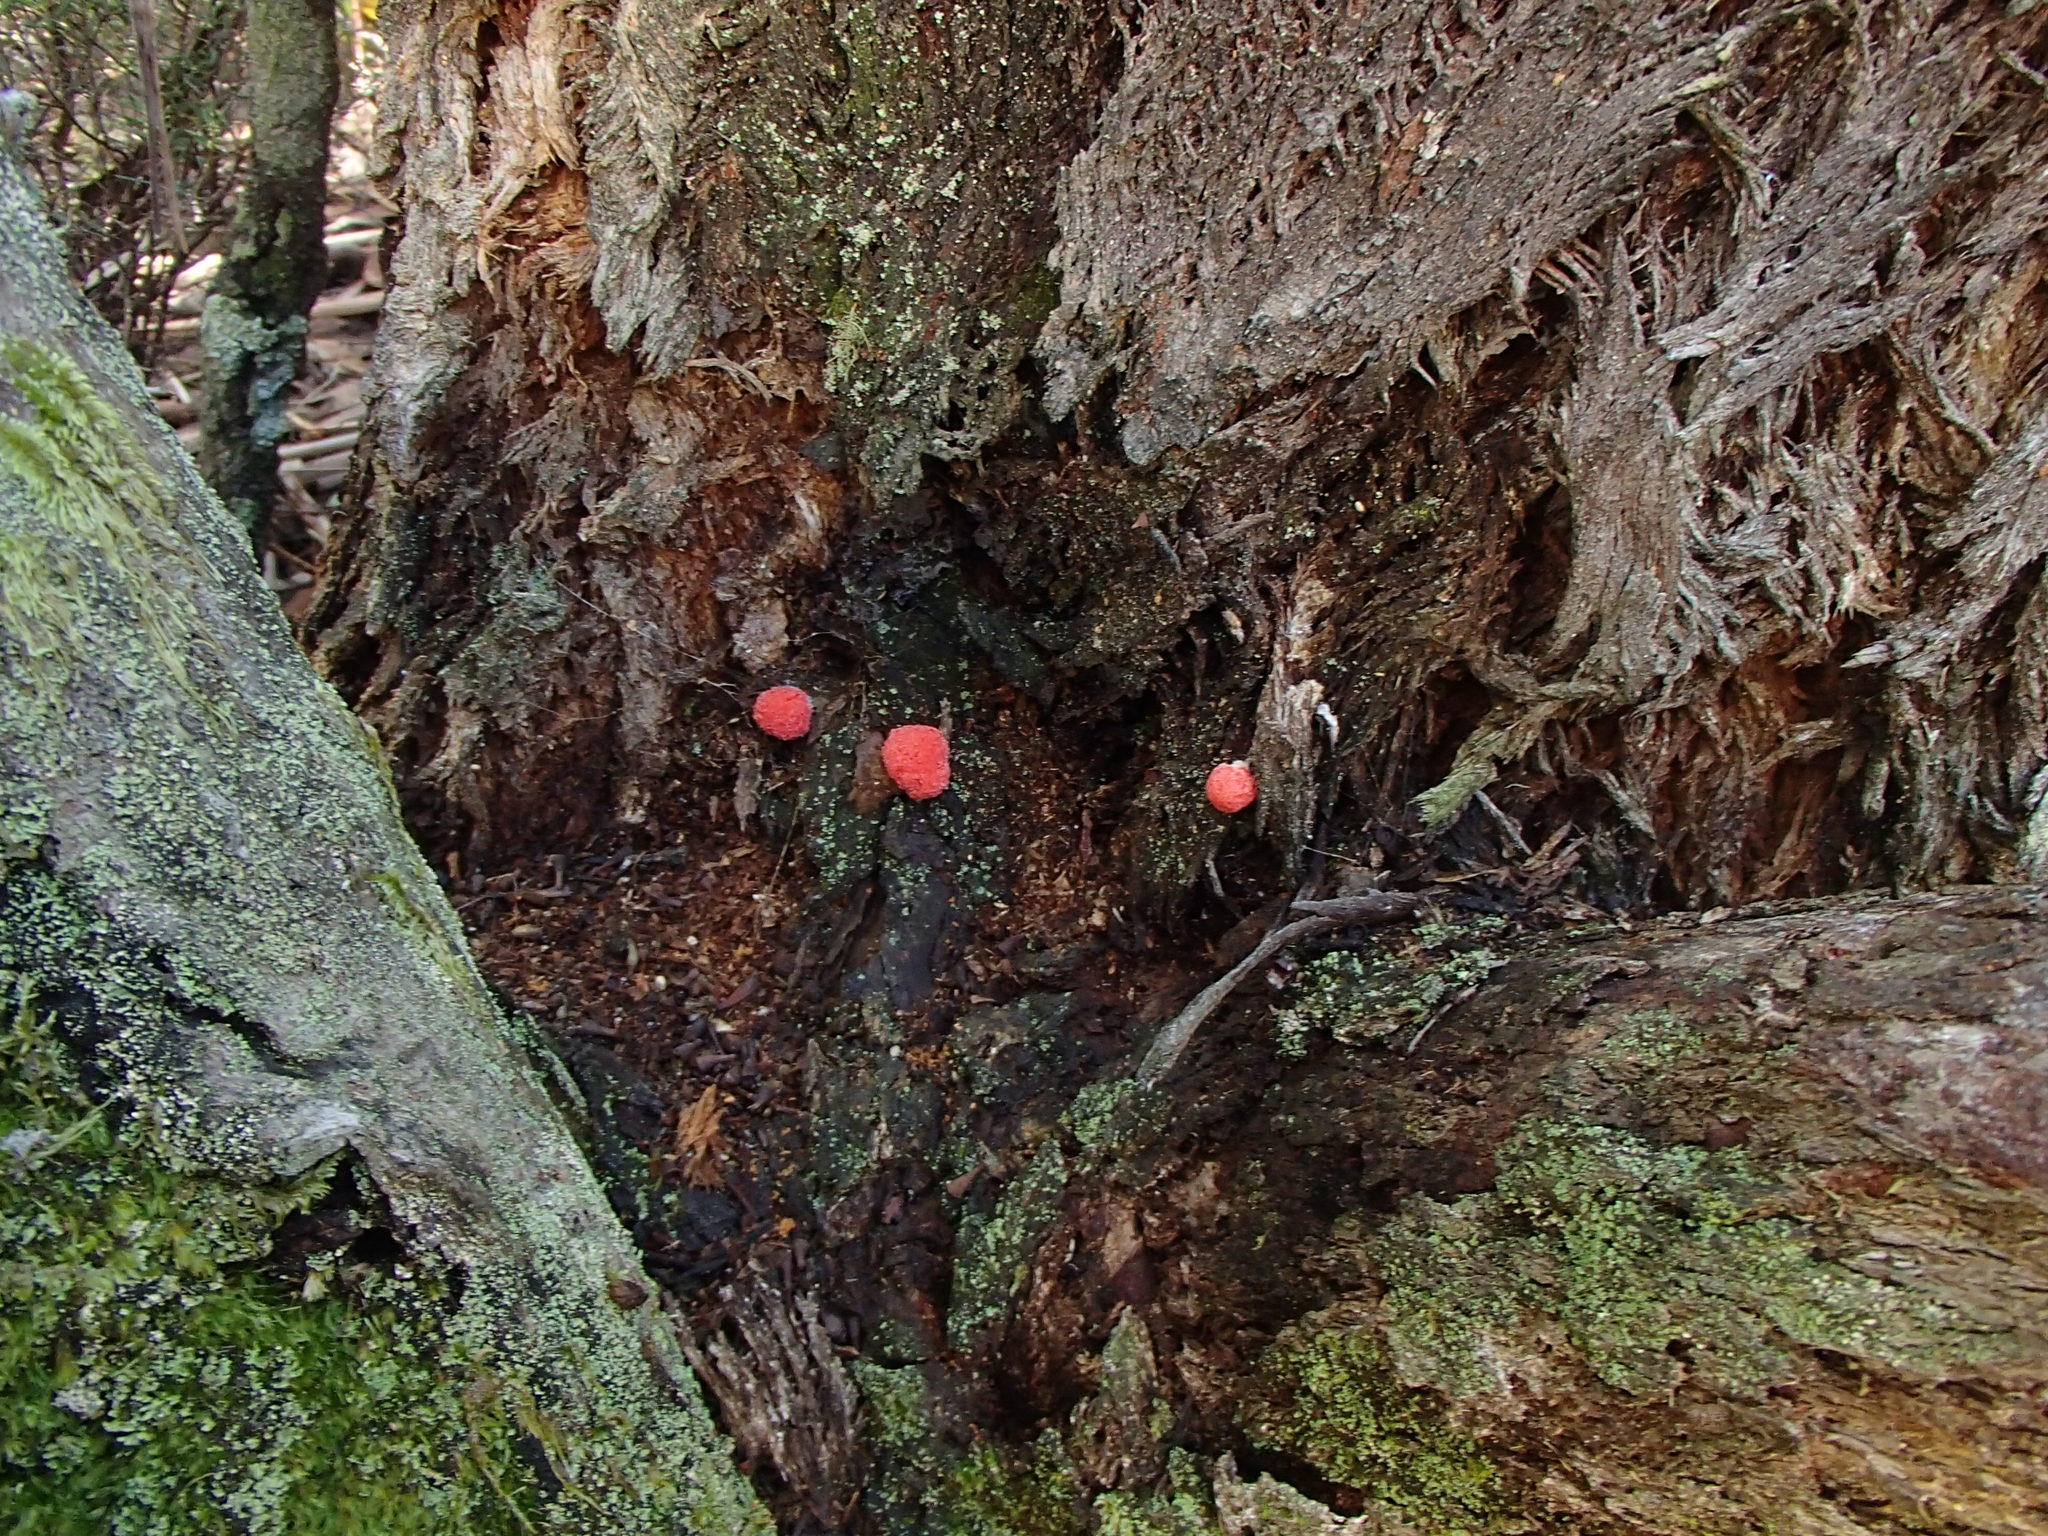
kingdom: Protozoa
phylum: Mycetozoa
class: Myxomycetes
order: Cribrariales
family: Tubiferaceae
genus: Tubifera
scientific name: Tubifera ferruginosa
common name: Red raspberry slime mold
